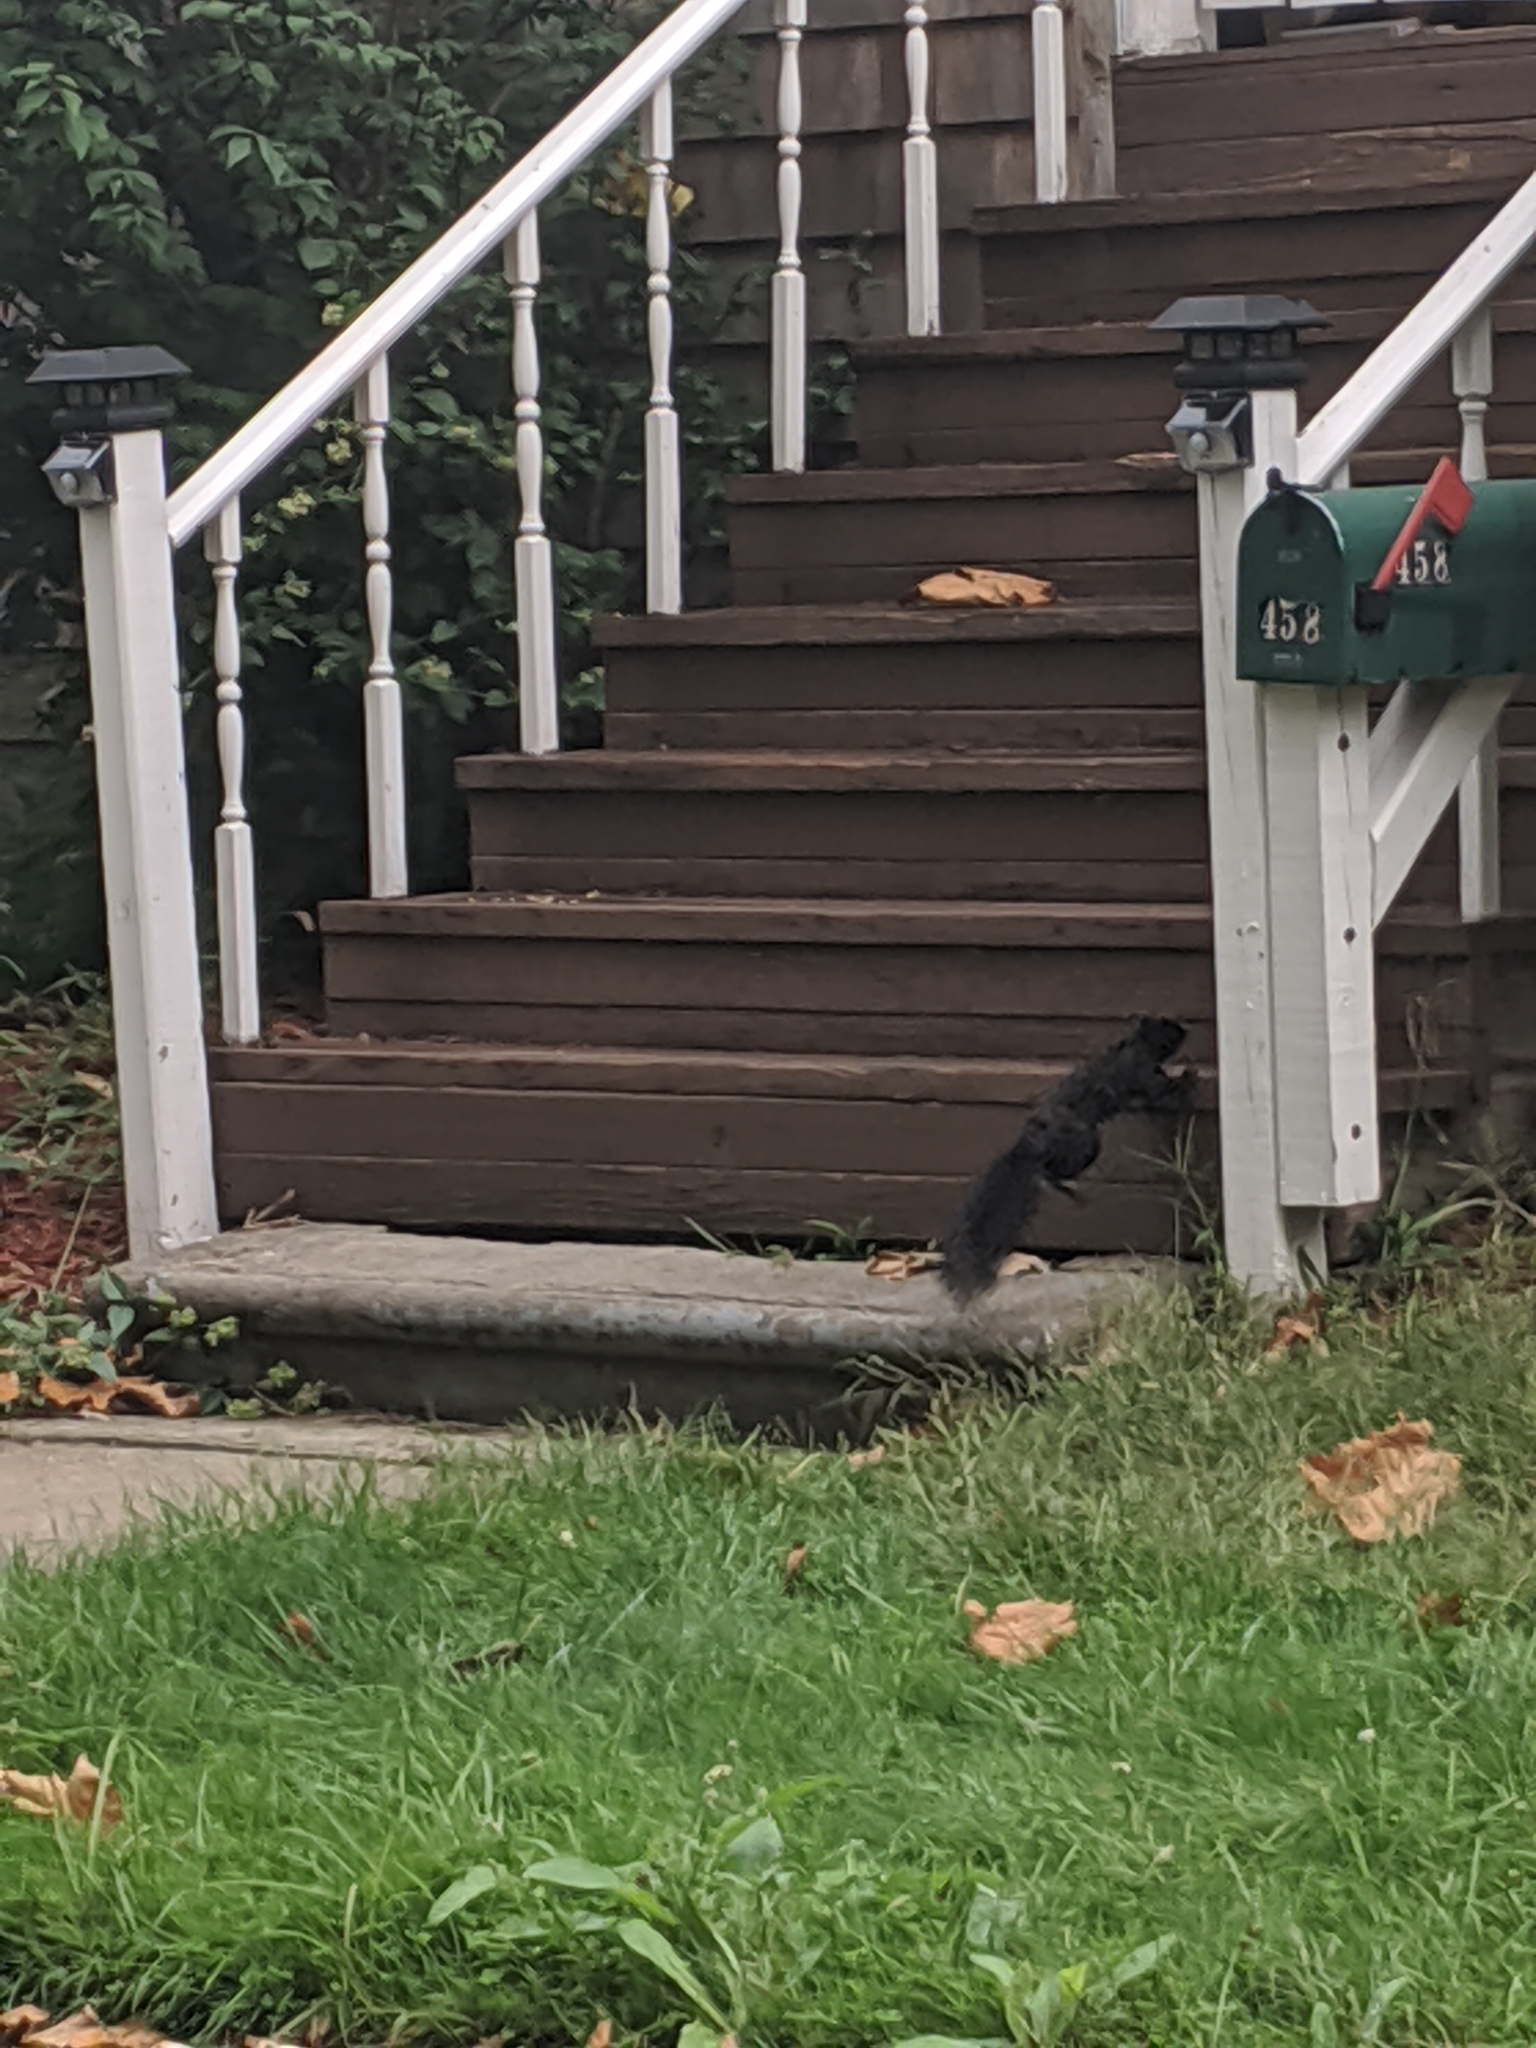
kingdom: Animalia
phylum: Chordata
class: Mammalia
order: Rodentia
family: Sciuridae
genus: Sciurus
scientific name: Sciurus carolinensis
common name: Eastern gray squirrel
